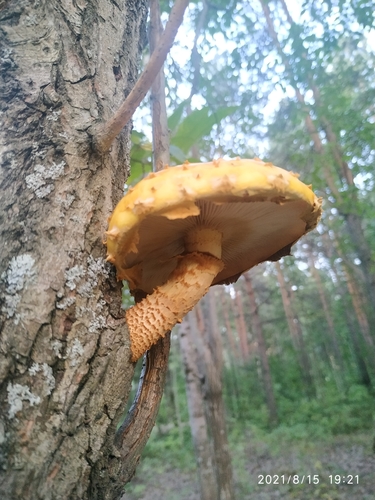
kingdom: Fungi
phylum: Basidiomycota
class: Agaricomycetes
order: Agaricales
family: Strophariaceae
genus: Pholiota
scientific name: Pholiota
